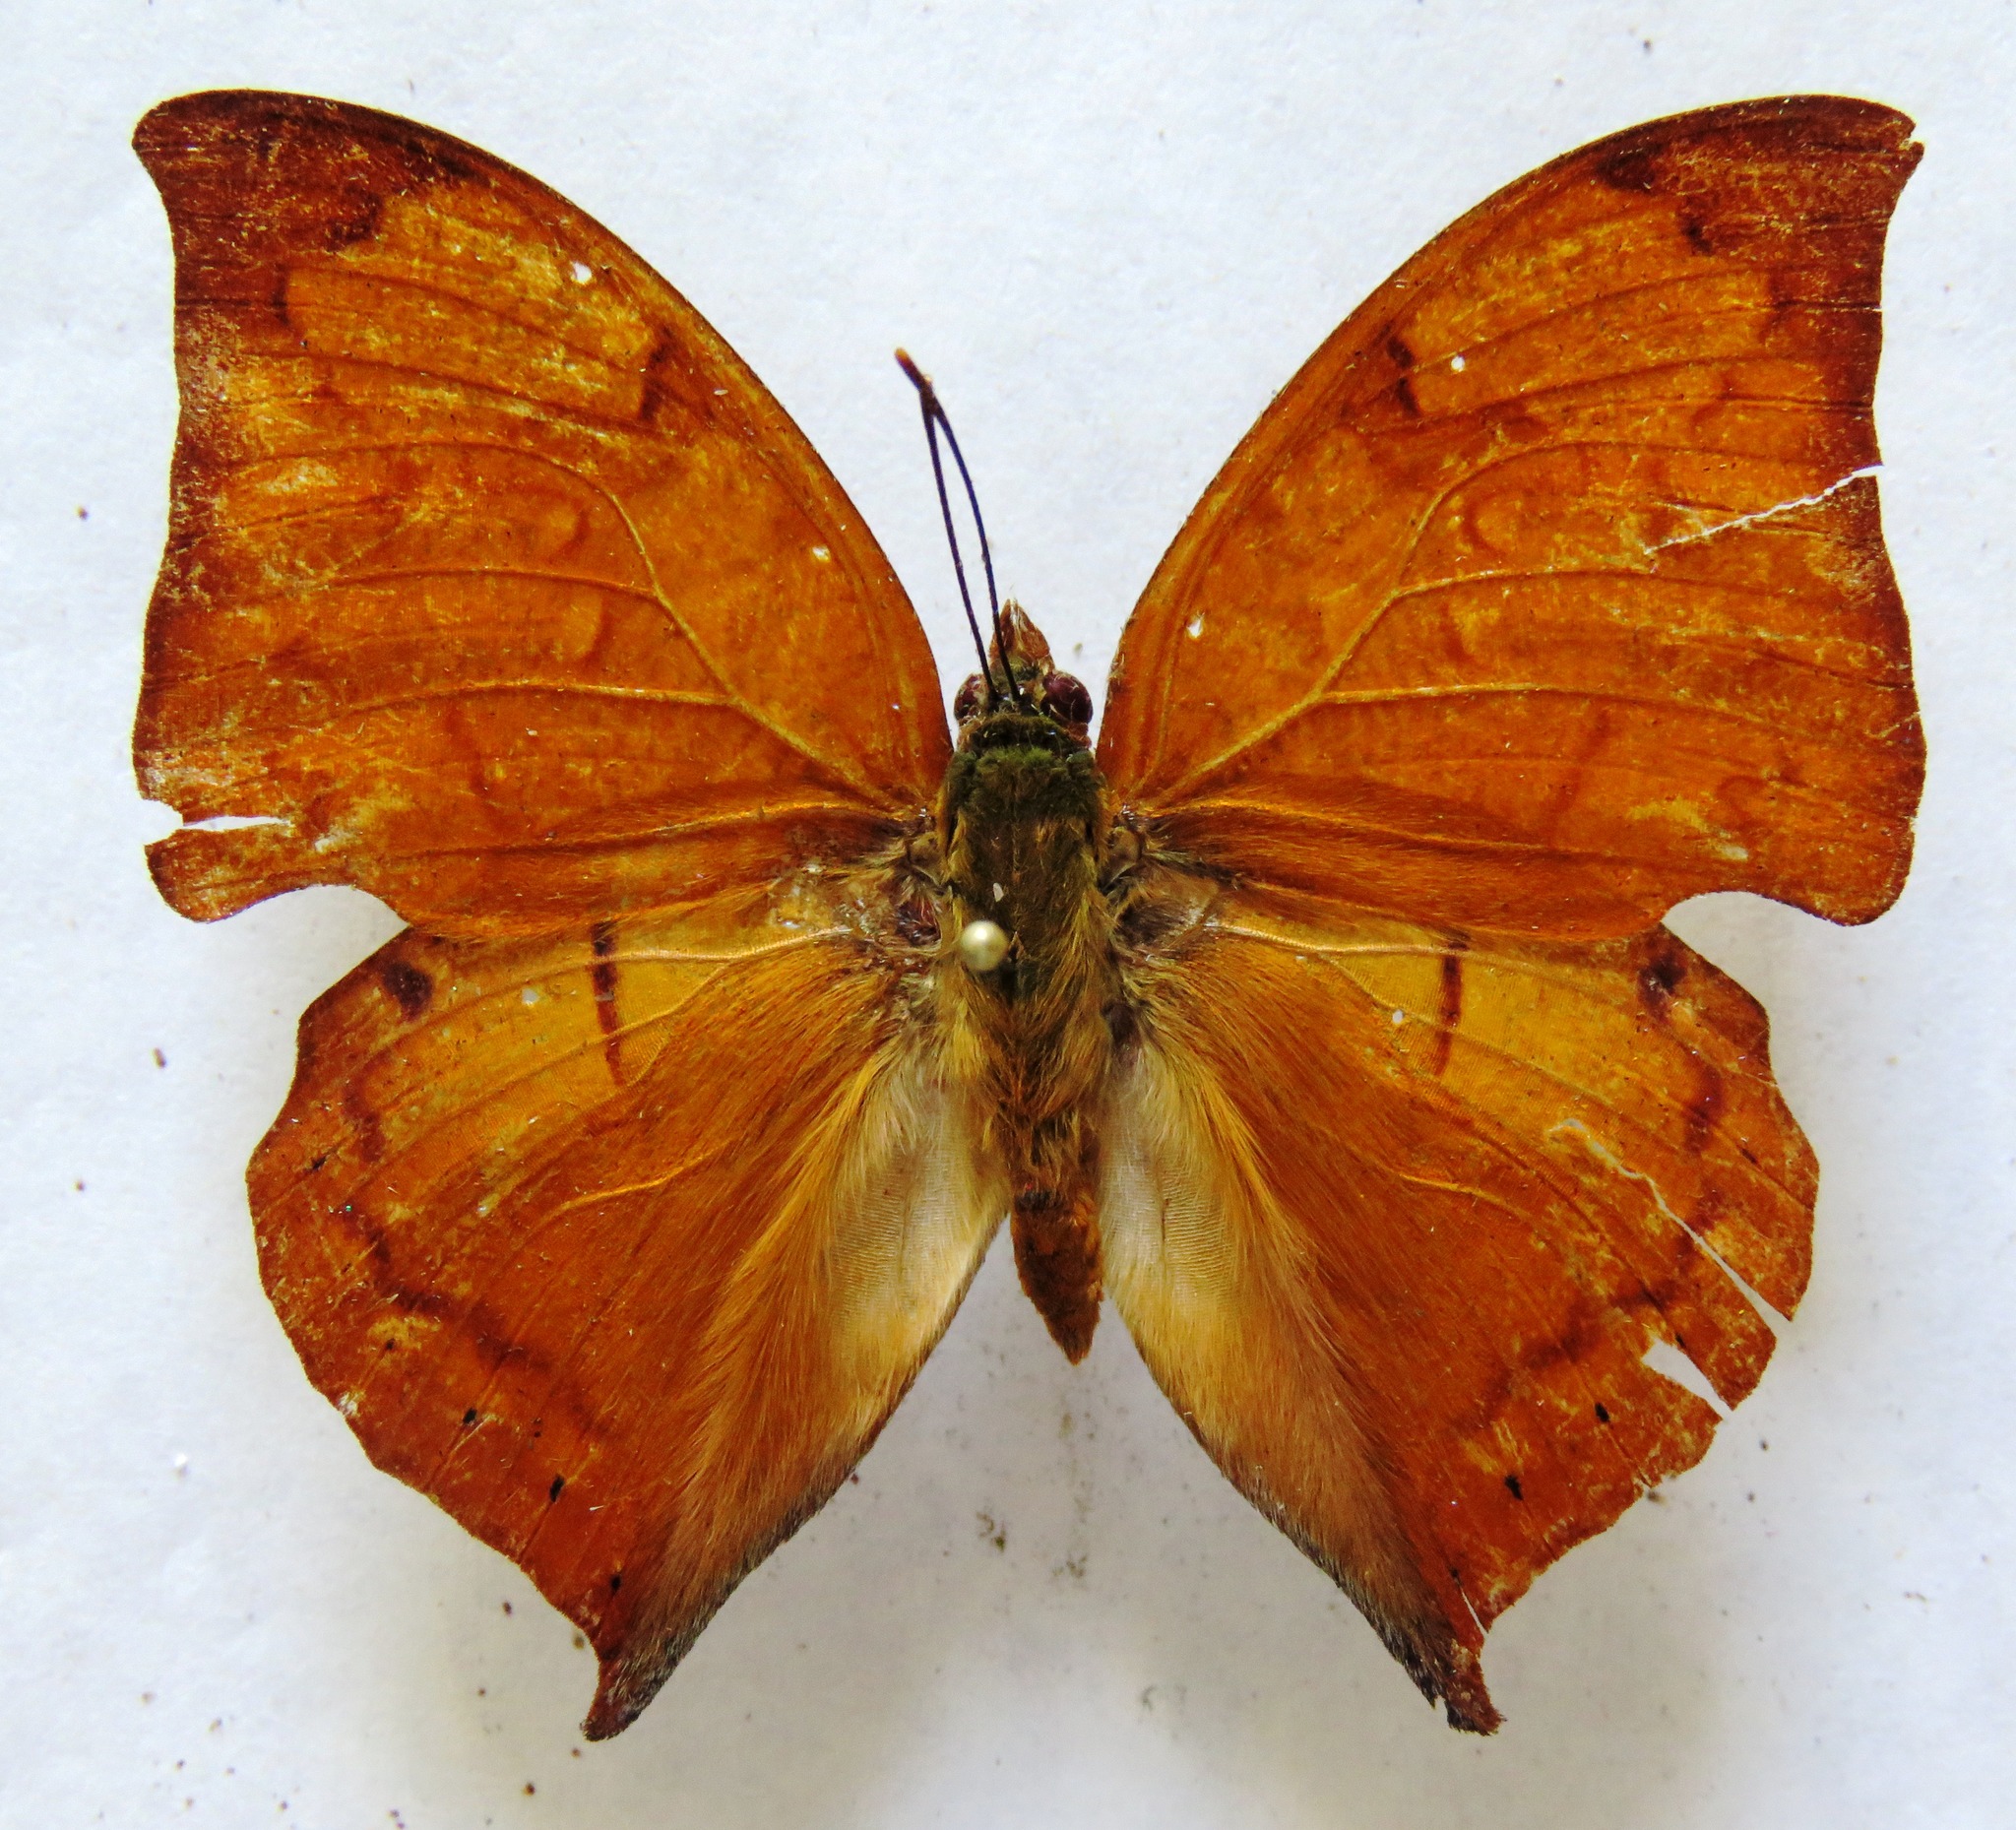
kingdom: Animalia
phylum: Arthropoda
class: Insecta
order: Lepidoptera
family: Nymphalidae
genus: Zaretis
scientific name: Zaretis itys
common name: Skeletonized leafwing
